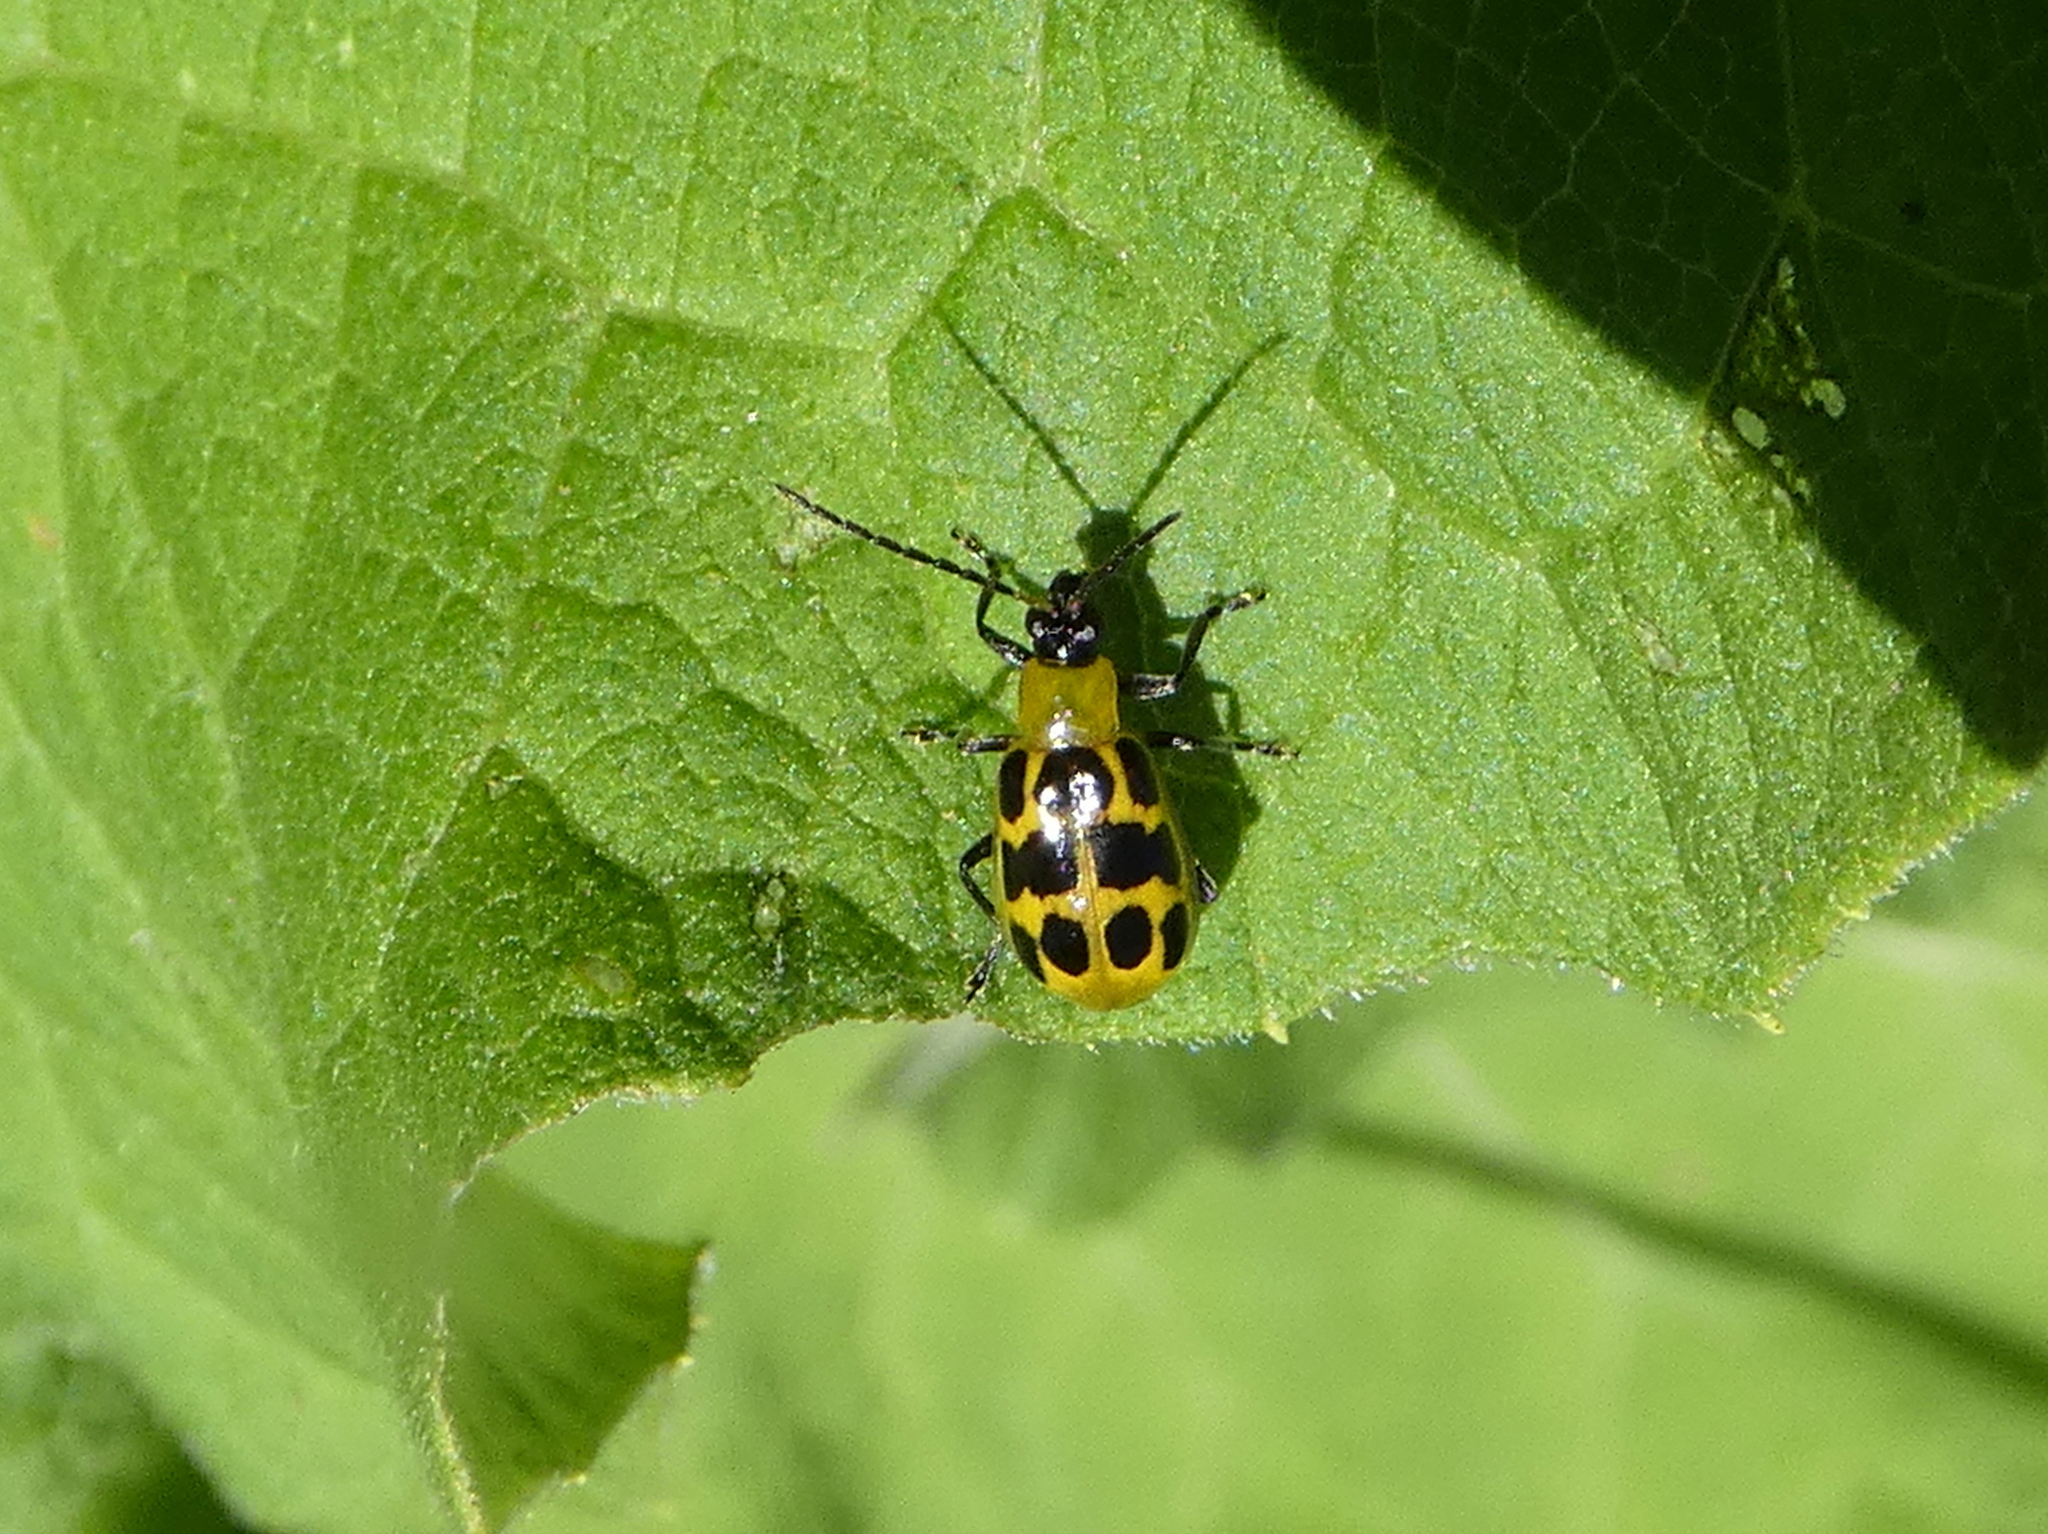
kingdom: Animalia
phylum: Arthropoda
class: Insecta
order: Coleoptera
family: Chrysomelidae
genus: Diabrotica
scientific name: Diabrotica undecimpunctata
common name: Spotted cucumber beetle
